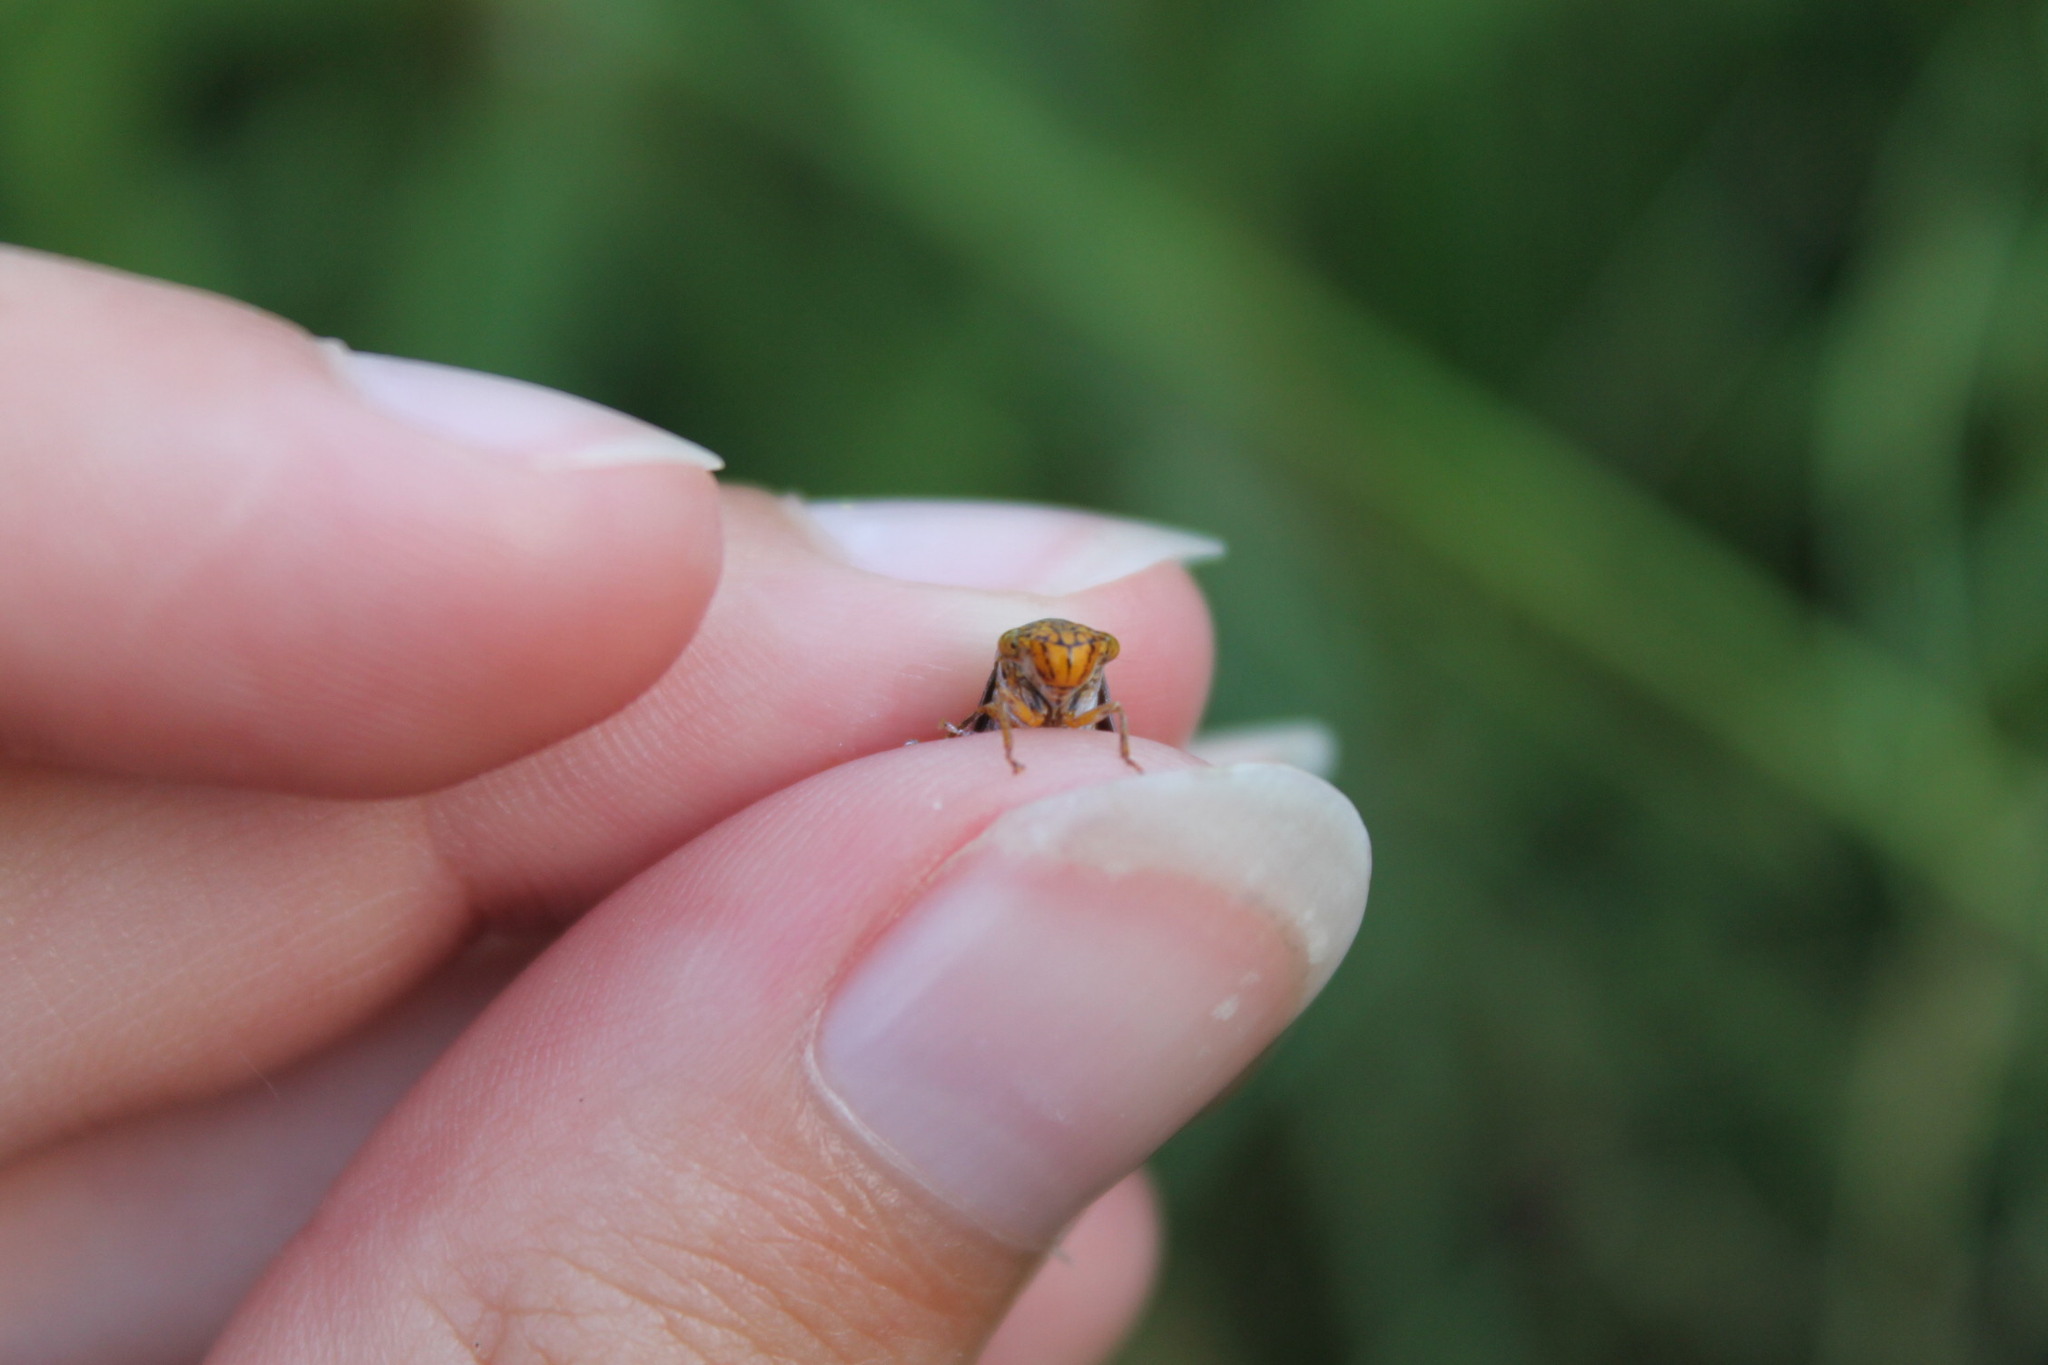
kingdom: Animalia
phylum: Arthropoda
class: Insecta
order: Hemiptera
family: Cicadellidae
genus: Oncometopia
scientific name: Oncometopia orbona
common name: Broad-headed sharpshooter
